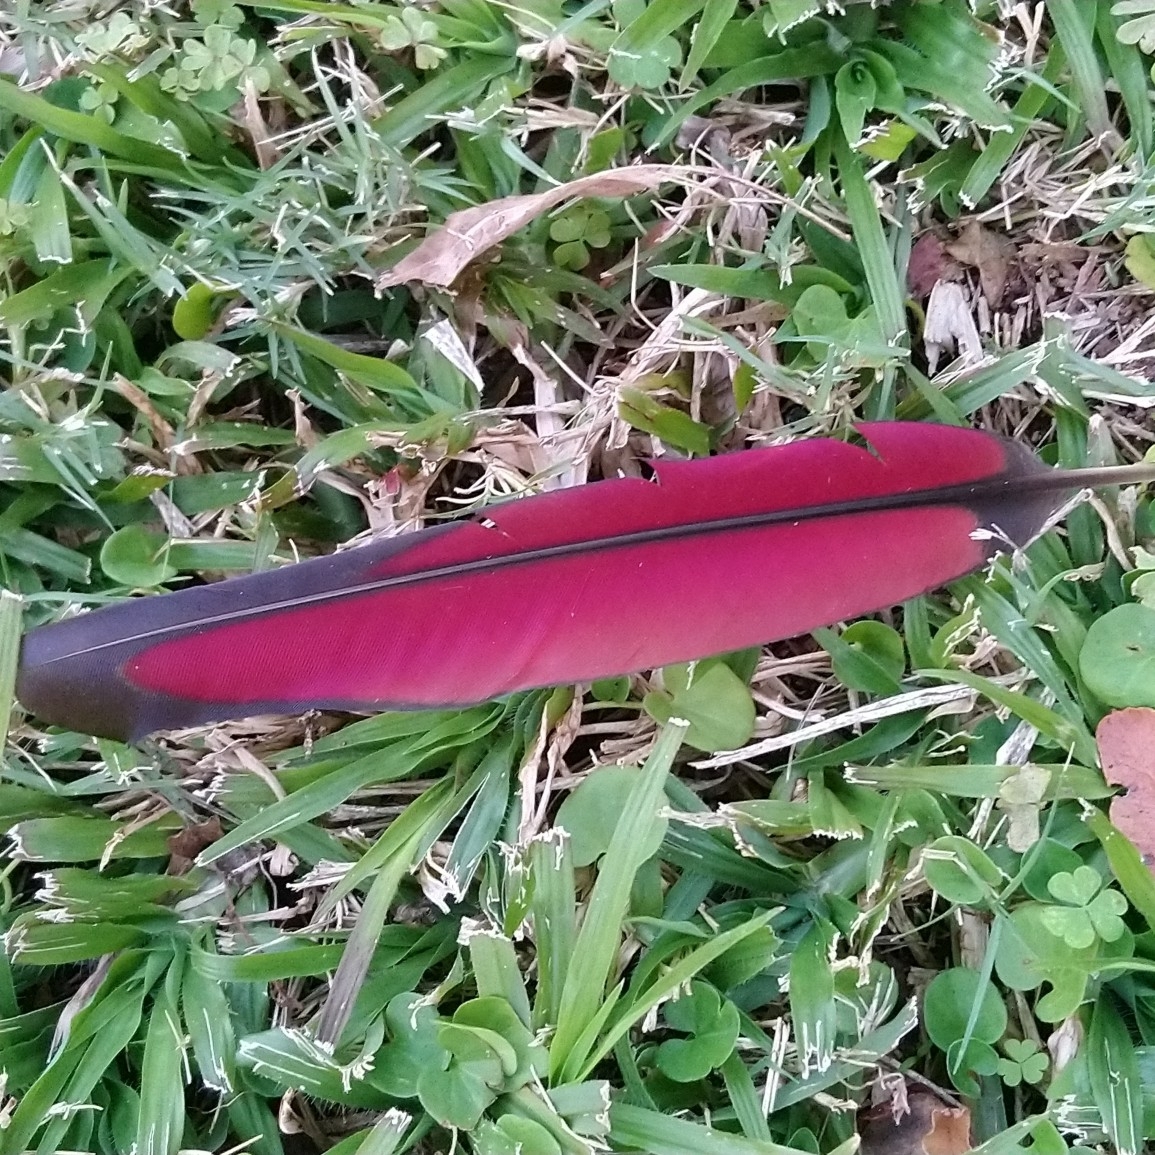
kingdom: Animalia
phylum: Chordata
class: Aves
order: Musophagiformes
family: Musophagidae
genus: Tauraco
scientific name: Tauraco porphyreolophus
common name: Purple-crested turaco
